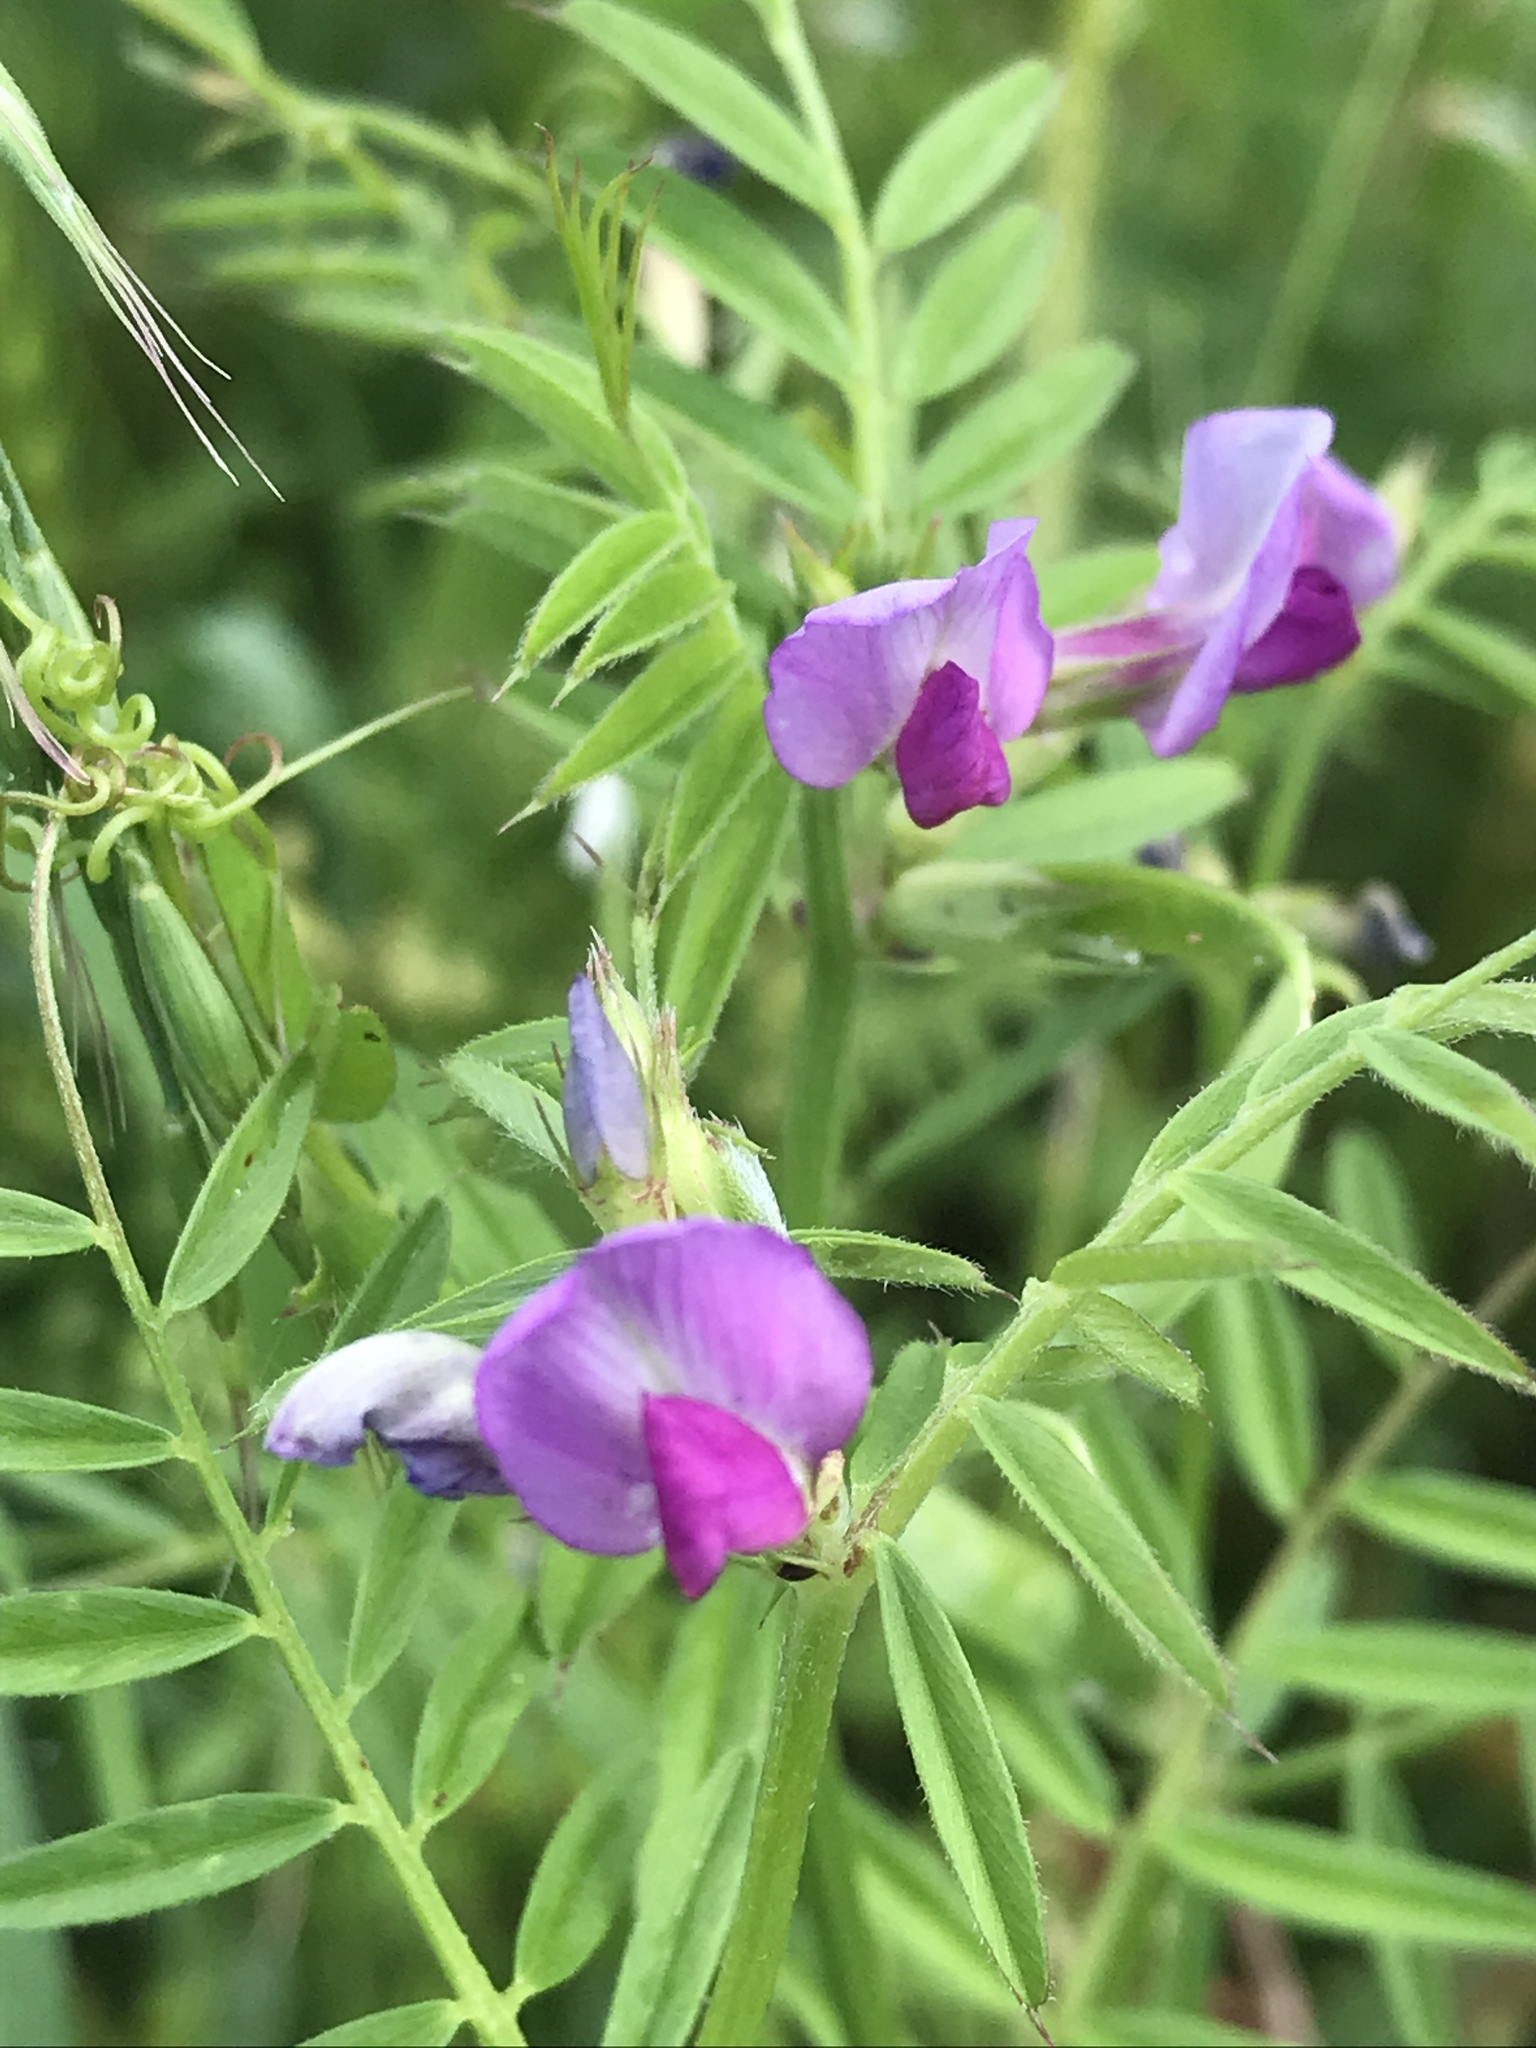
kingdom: Plantae
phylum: Tracheophyta
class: Magnoliopsida
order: Fabales
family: Fabaceae
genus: Vicia
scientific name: Vicia sativa
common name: Garden vetch
